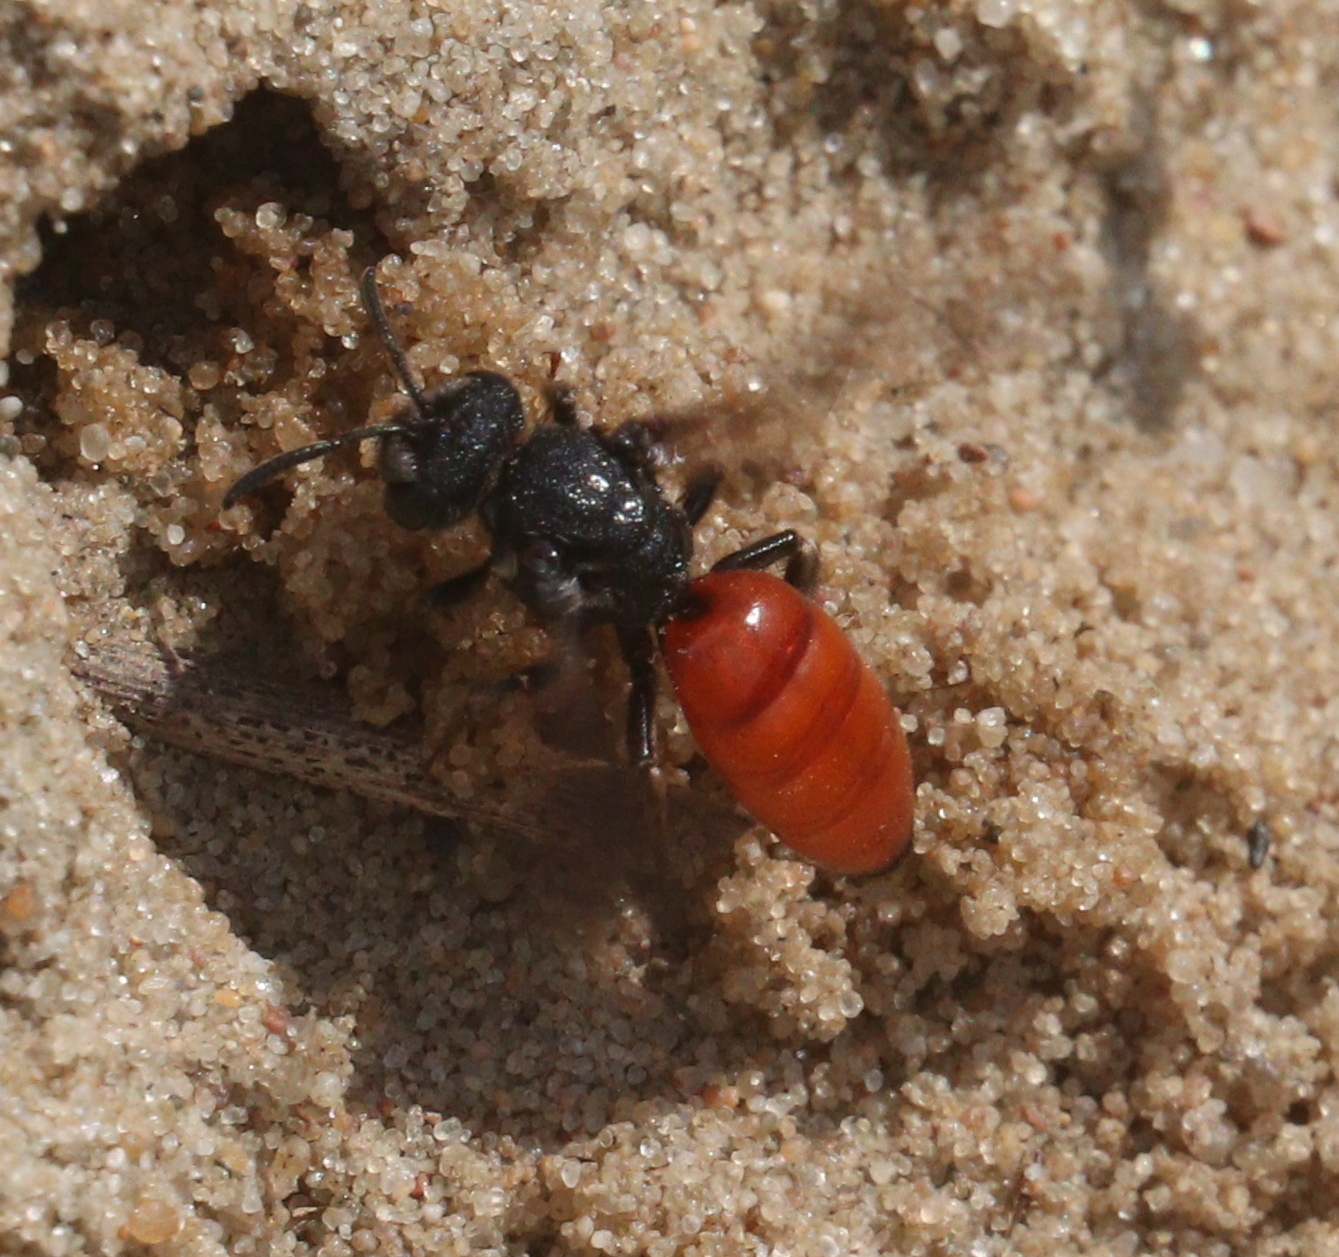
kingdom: Animalia
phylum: Arthropoda
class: Insecta
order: Hymenoptera
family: Halictidae
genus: Sphecodes
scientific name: Sphecodes albilabris
